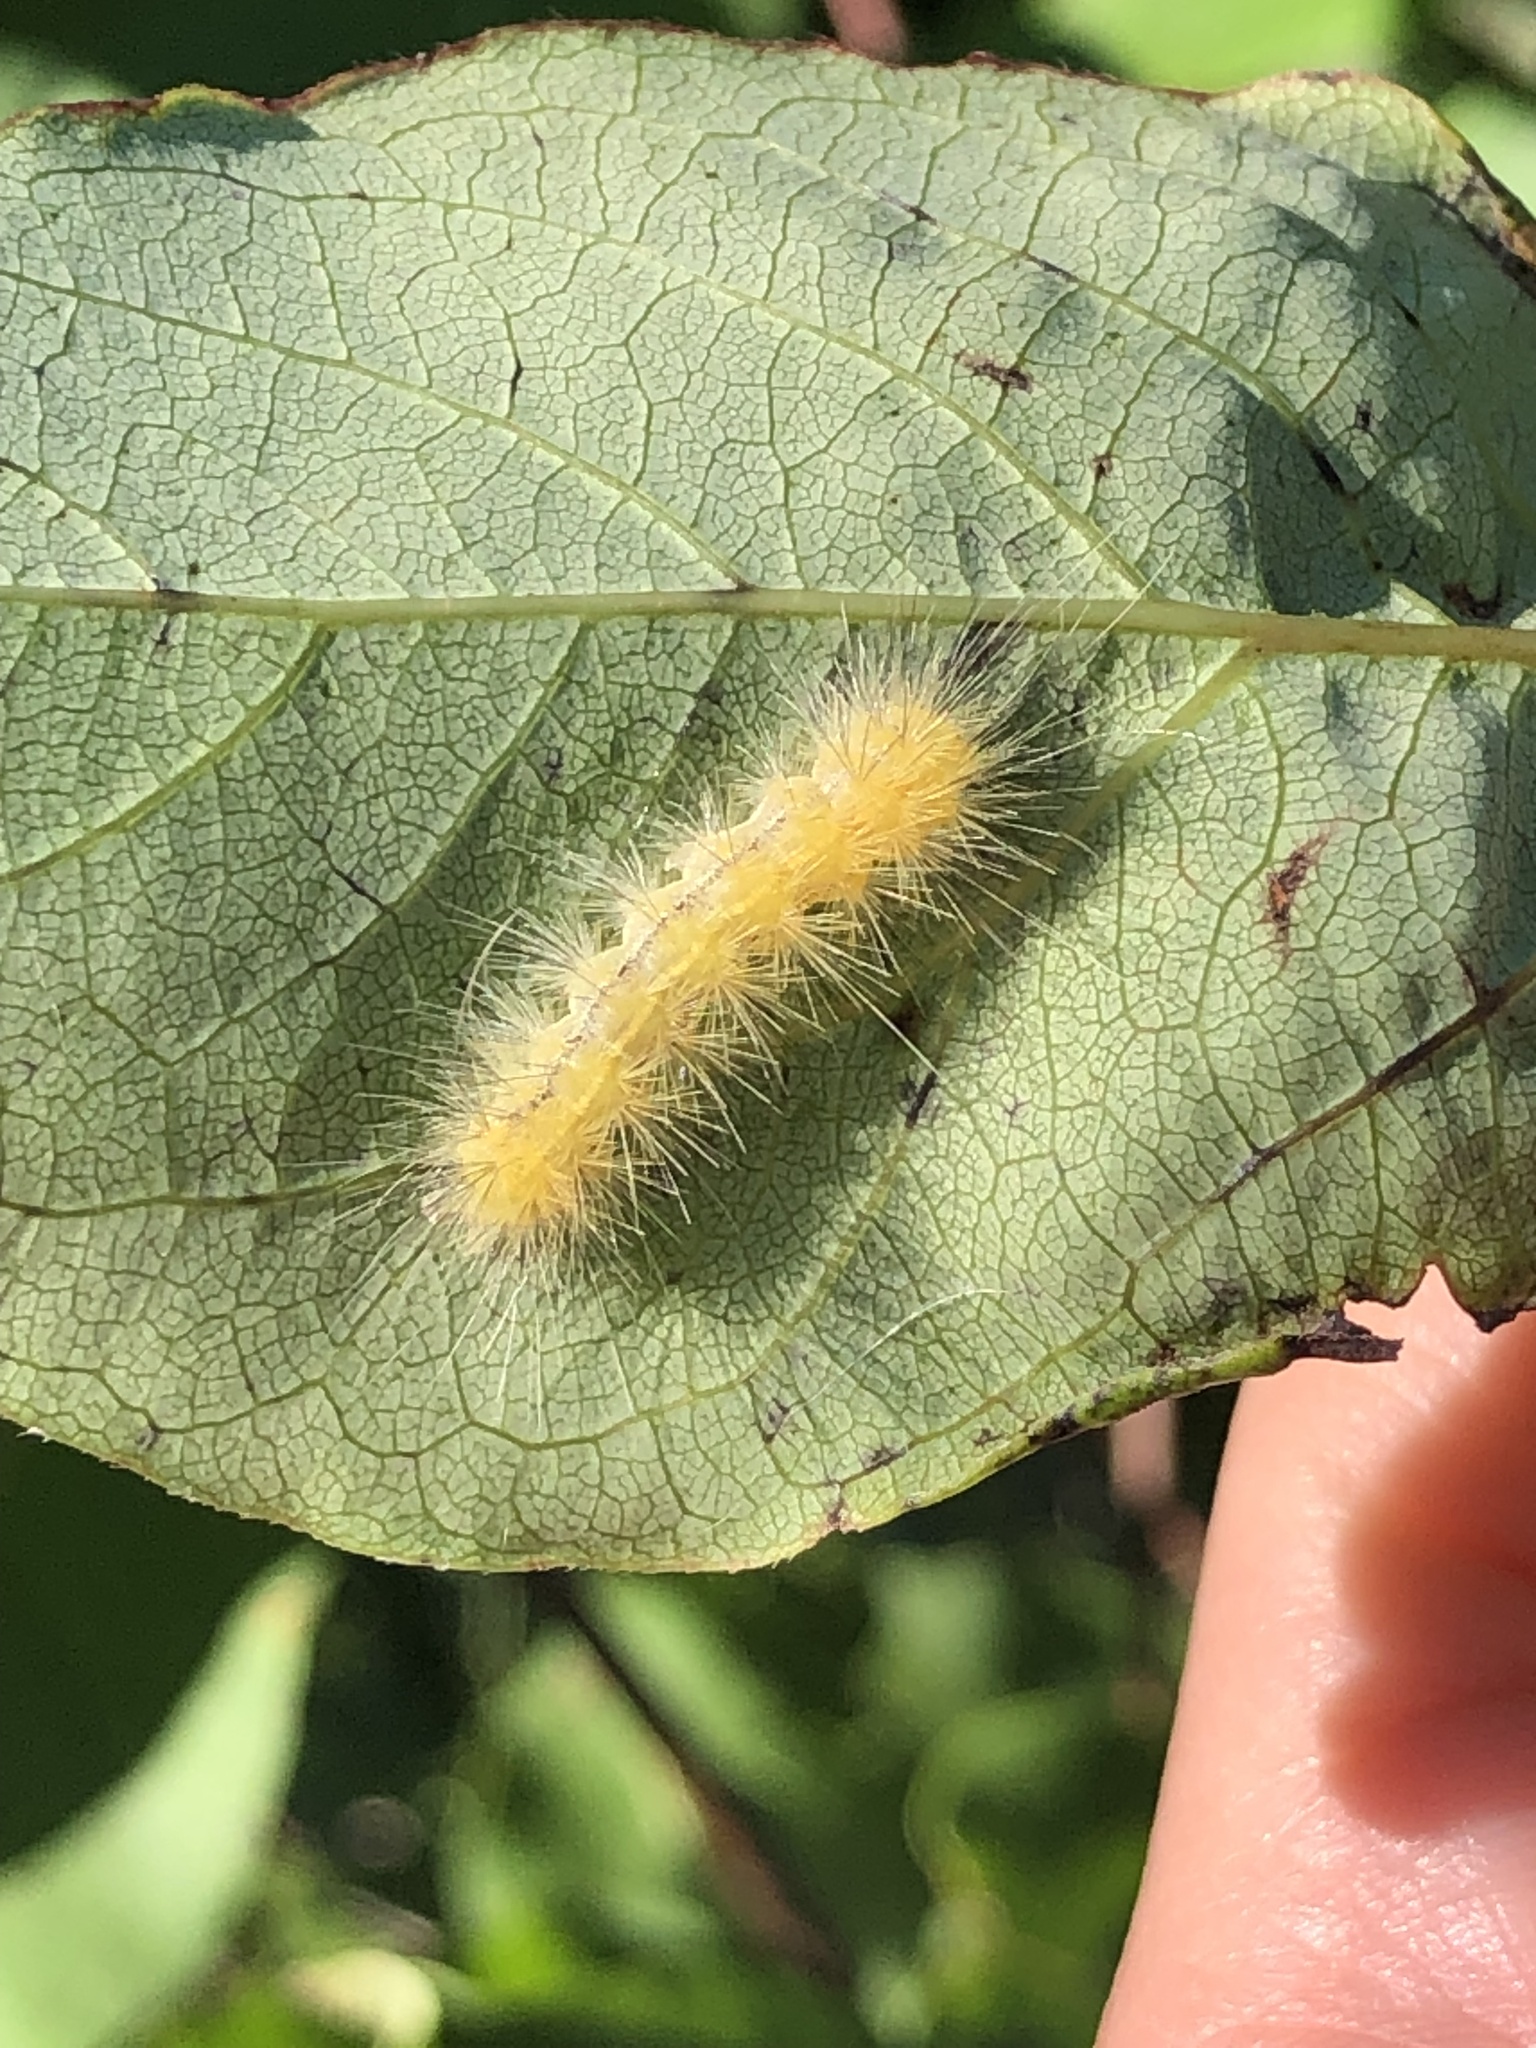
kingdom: Animalia
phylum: Arthropoda
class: Insecta
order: Lepidoptera
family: Erebidae
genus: Spilosoma
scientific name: Spilosoma virginica
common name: Virginia tiger moth
